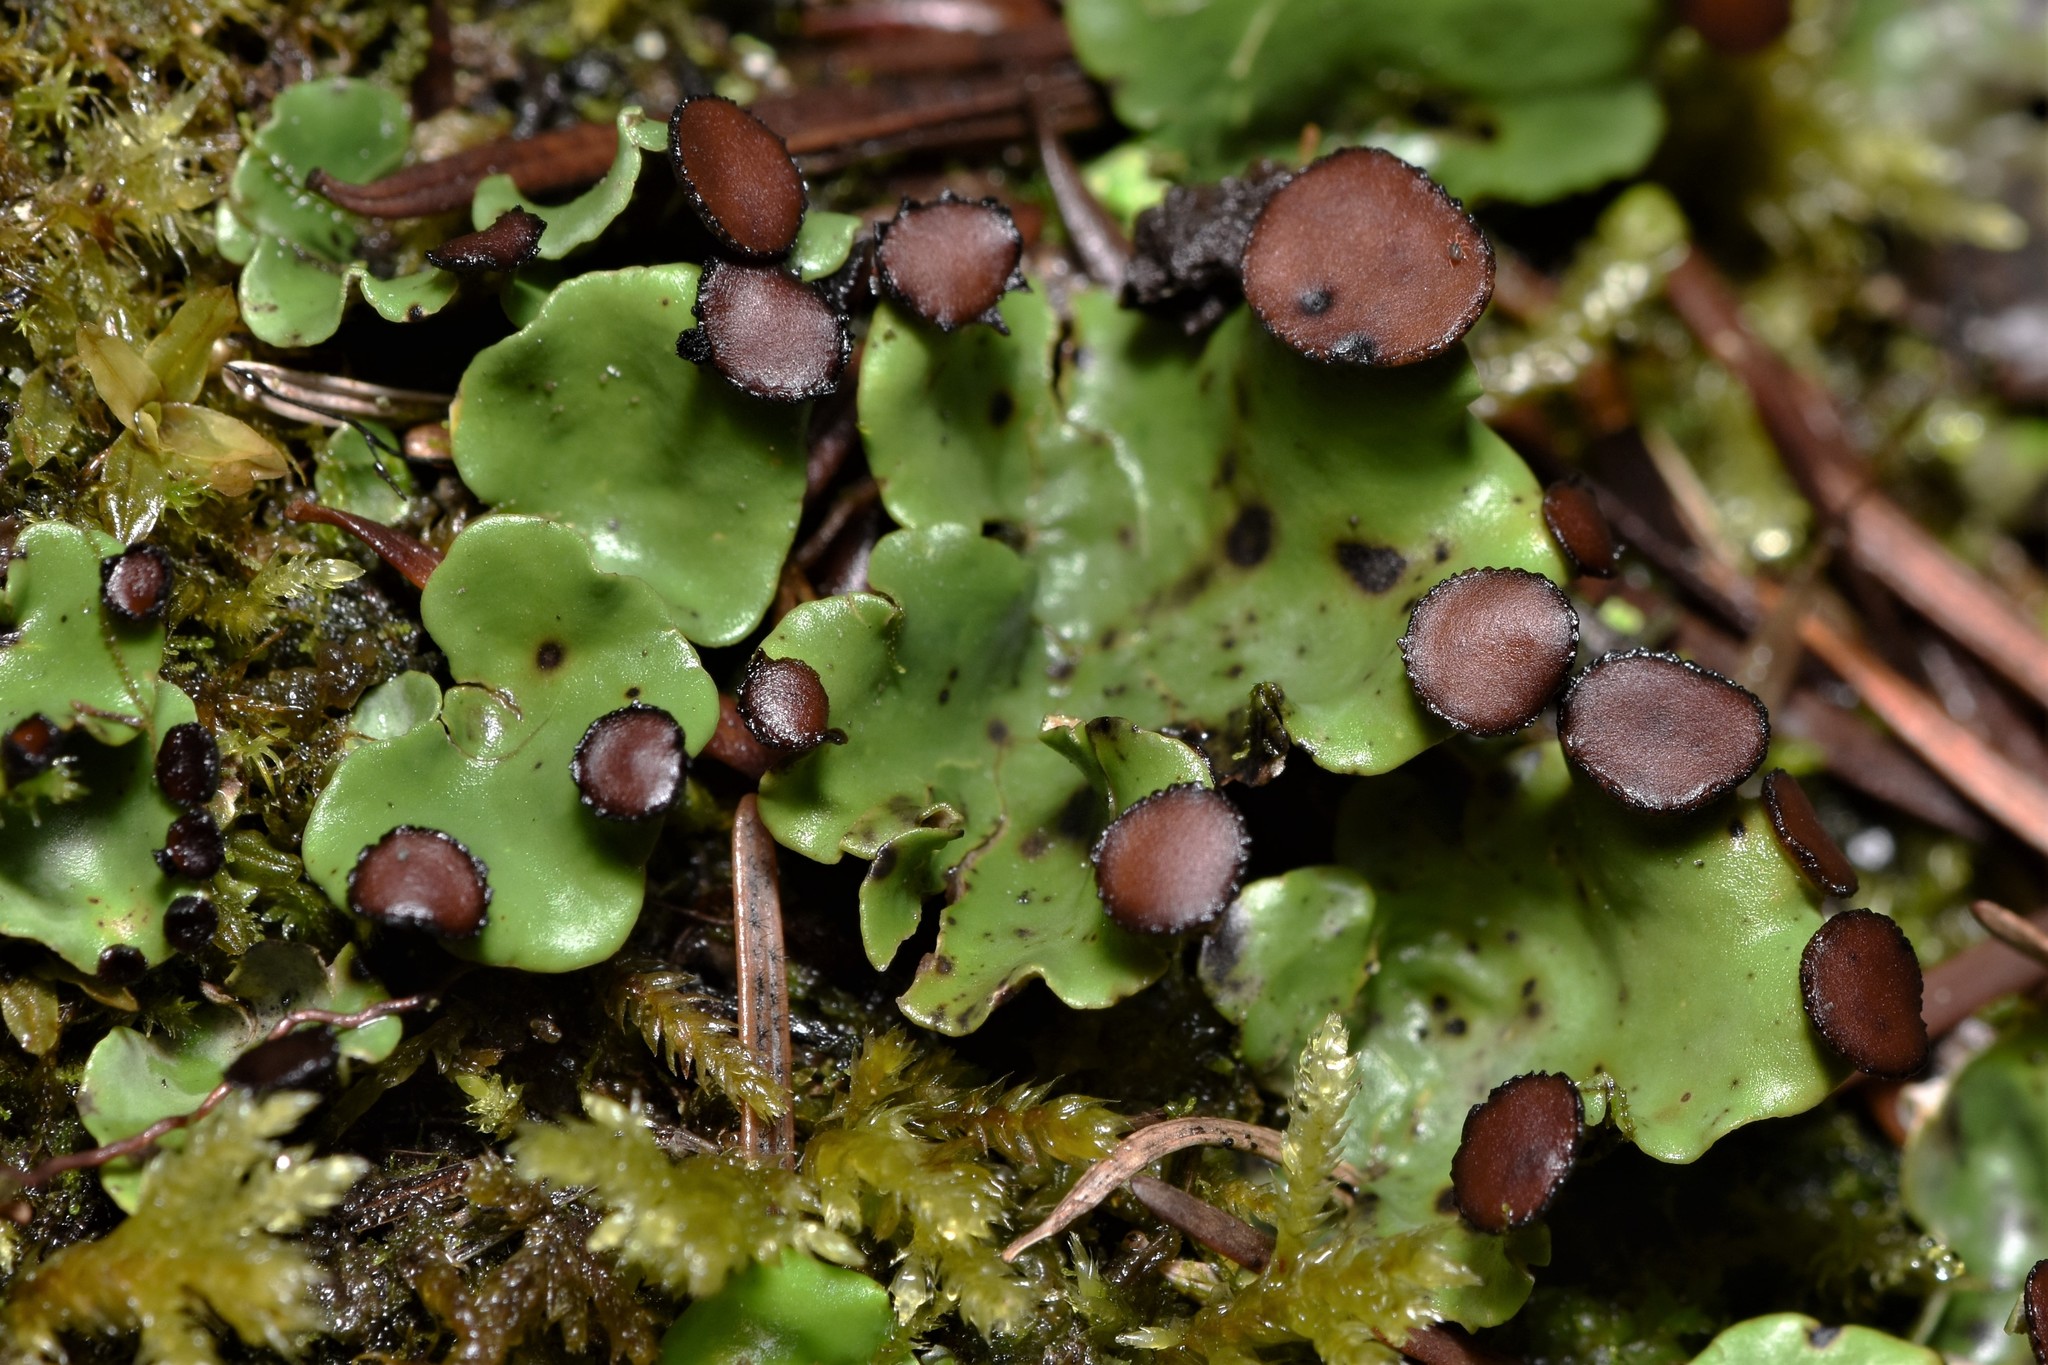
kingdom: Fungi
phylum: Ascomycota
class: Lecanoromycetes
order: Peltigerales
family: Peltigeraceae
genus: Peltigera
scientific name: Peltigera venosa
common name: Pixie gowns lichen
